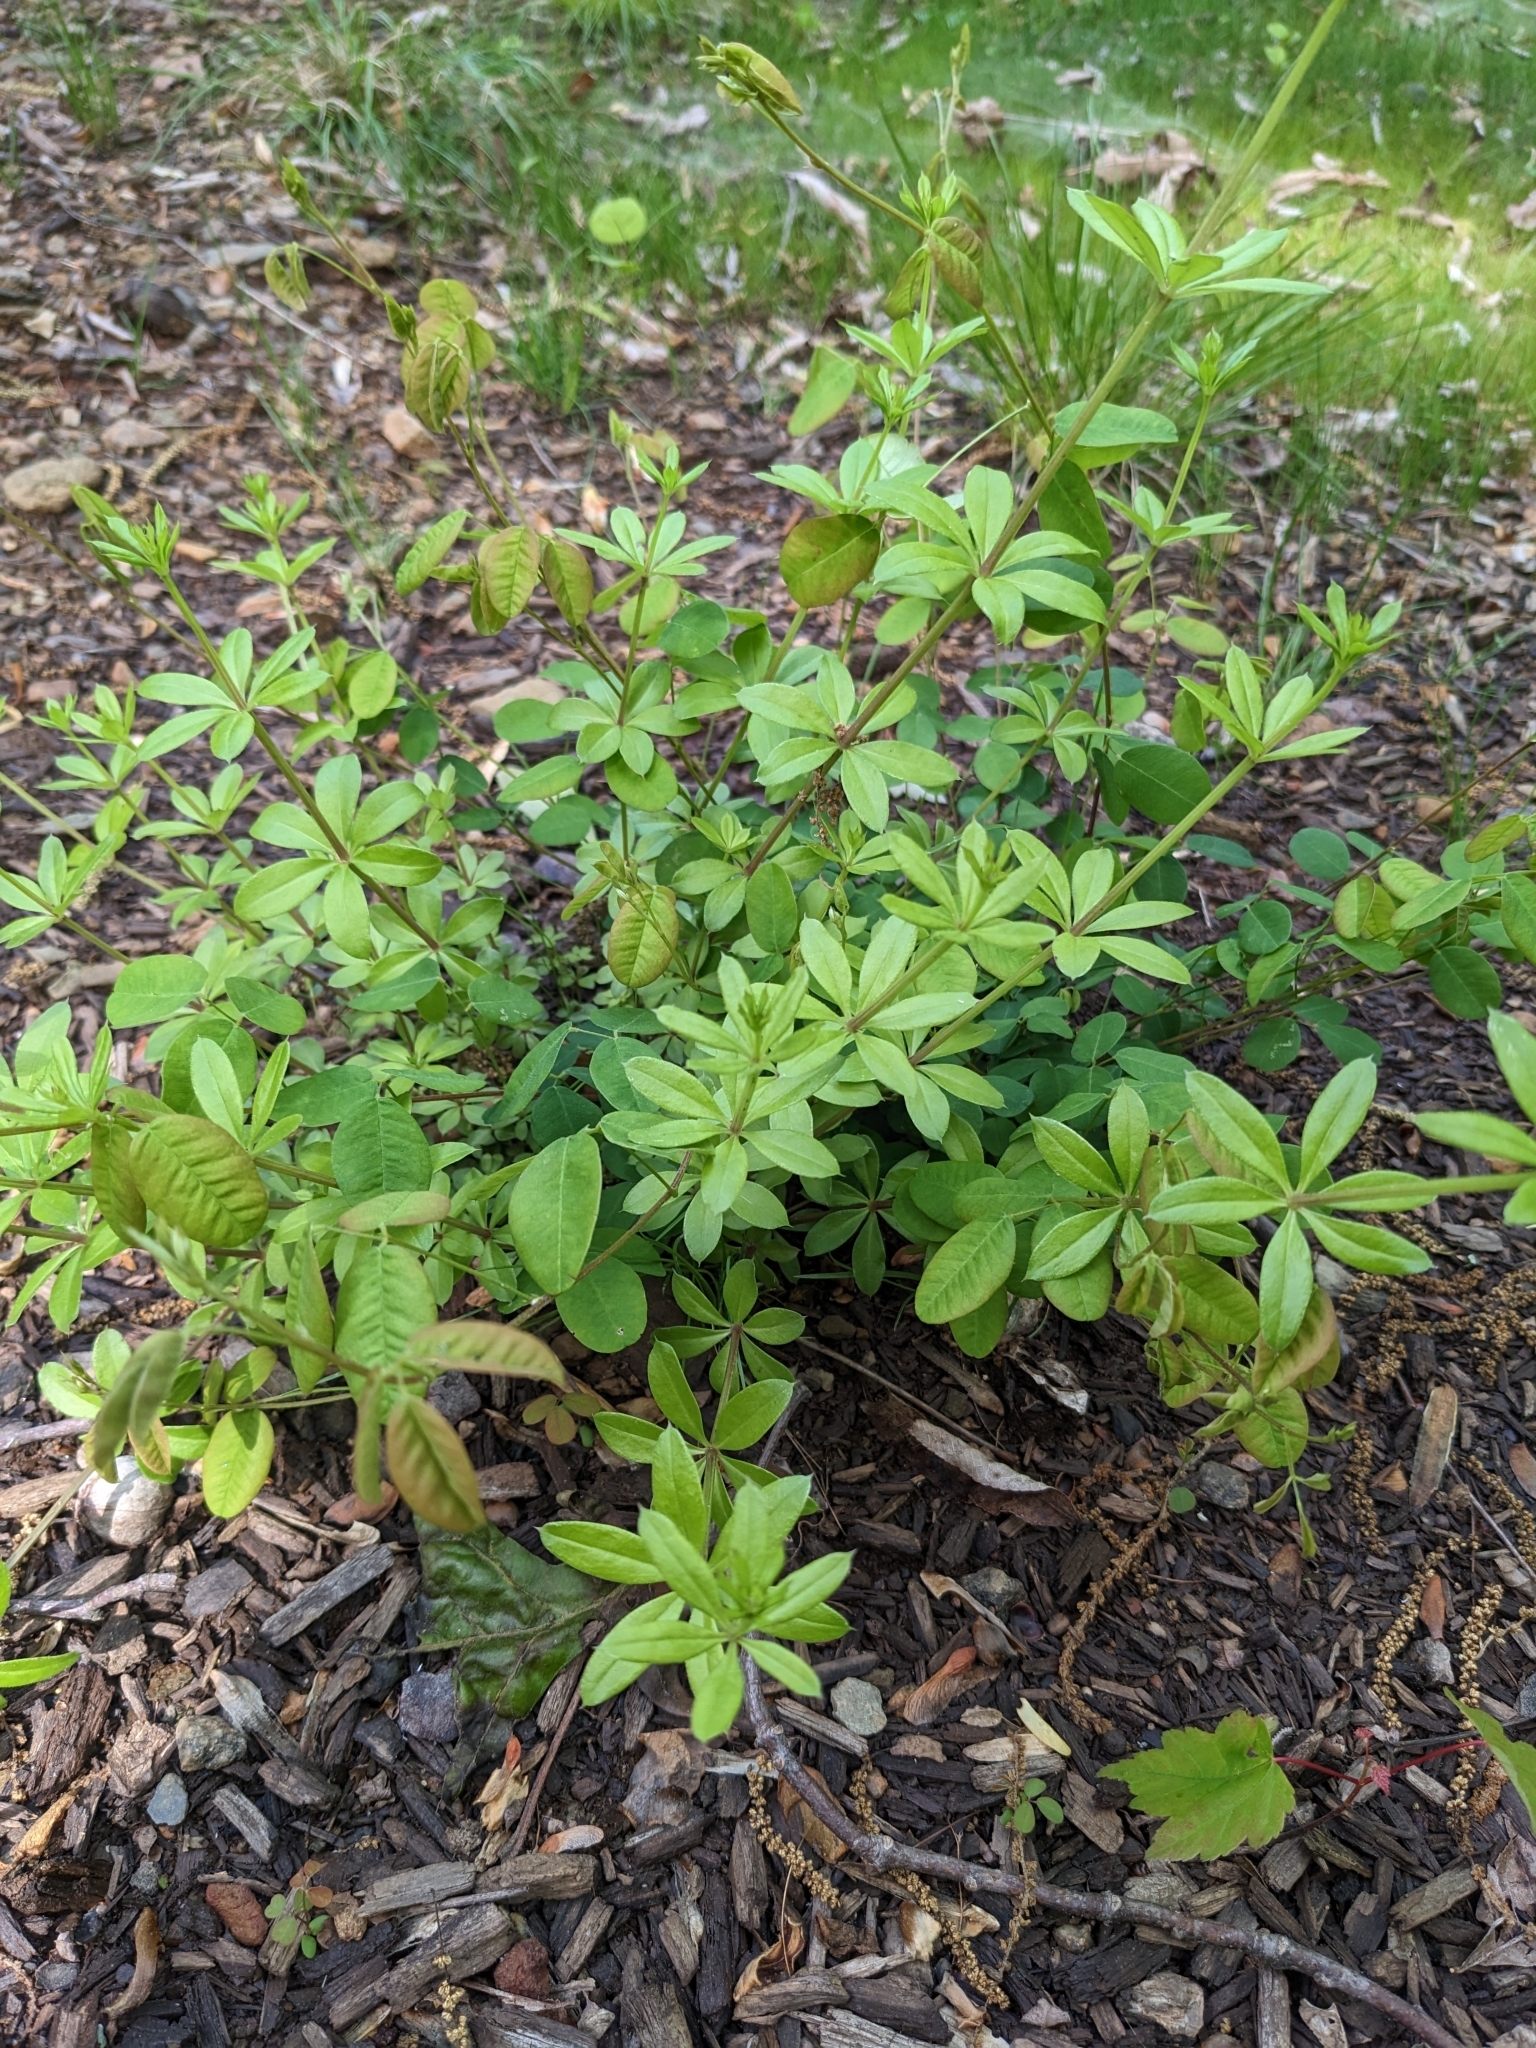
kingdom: Plantae
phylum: Tracheophyta
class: Magnoliopsida
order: Gentianales
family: Rubiaceae
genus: Galium
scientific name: Galium triflorum
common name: Fragrant bedstraw
